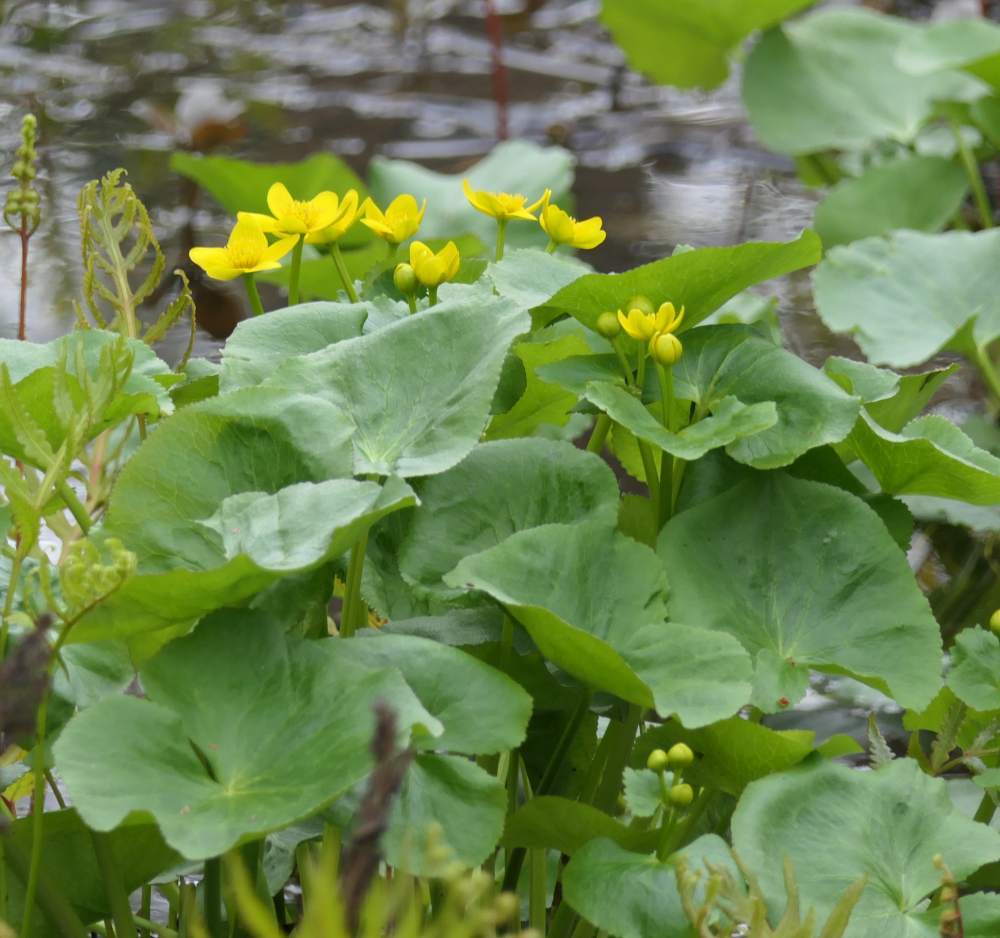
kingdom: Plantae
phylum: Tracheophyta
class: Magnoliopsida
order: Ranunculales
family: Ranunculaceae
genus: Caltha
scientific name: Caltha palustris
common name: Marsh marigold
